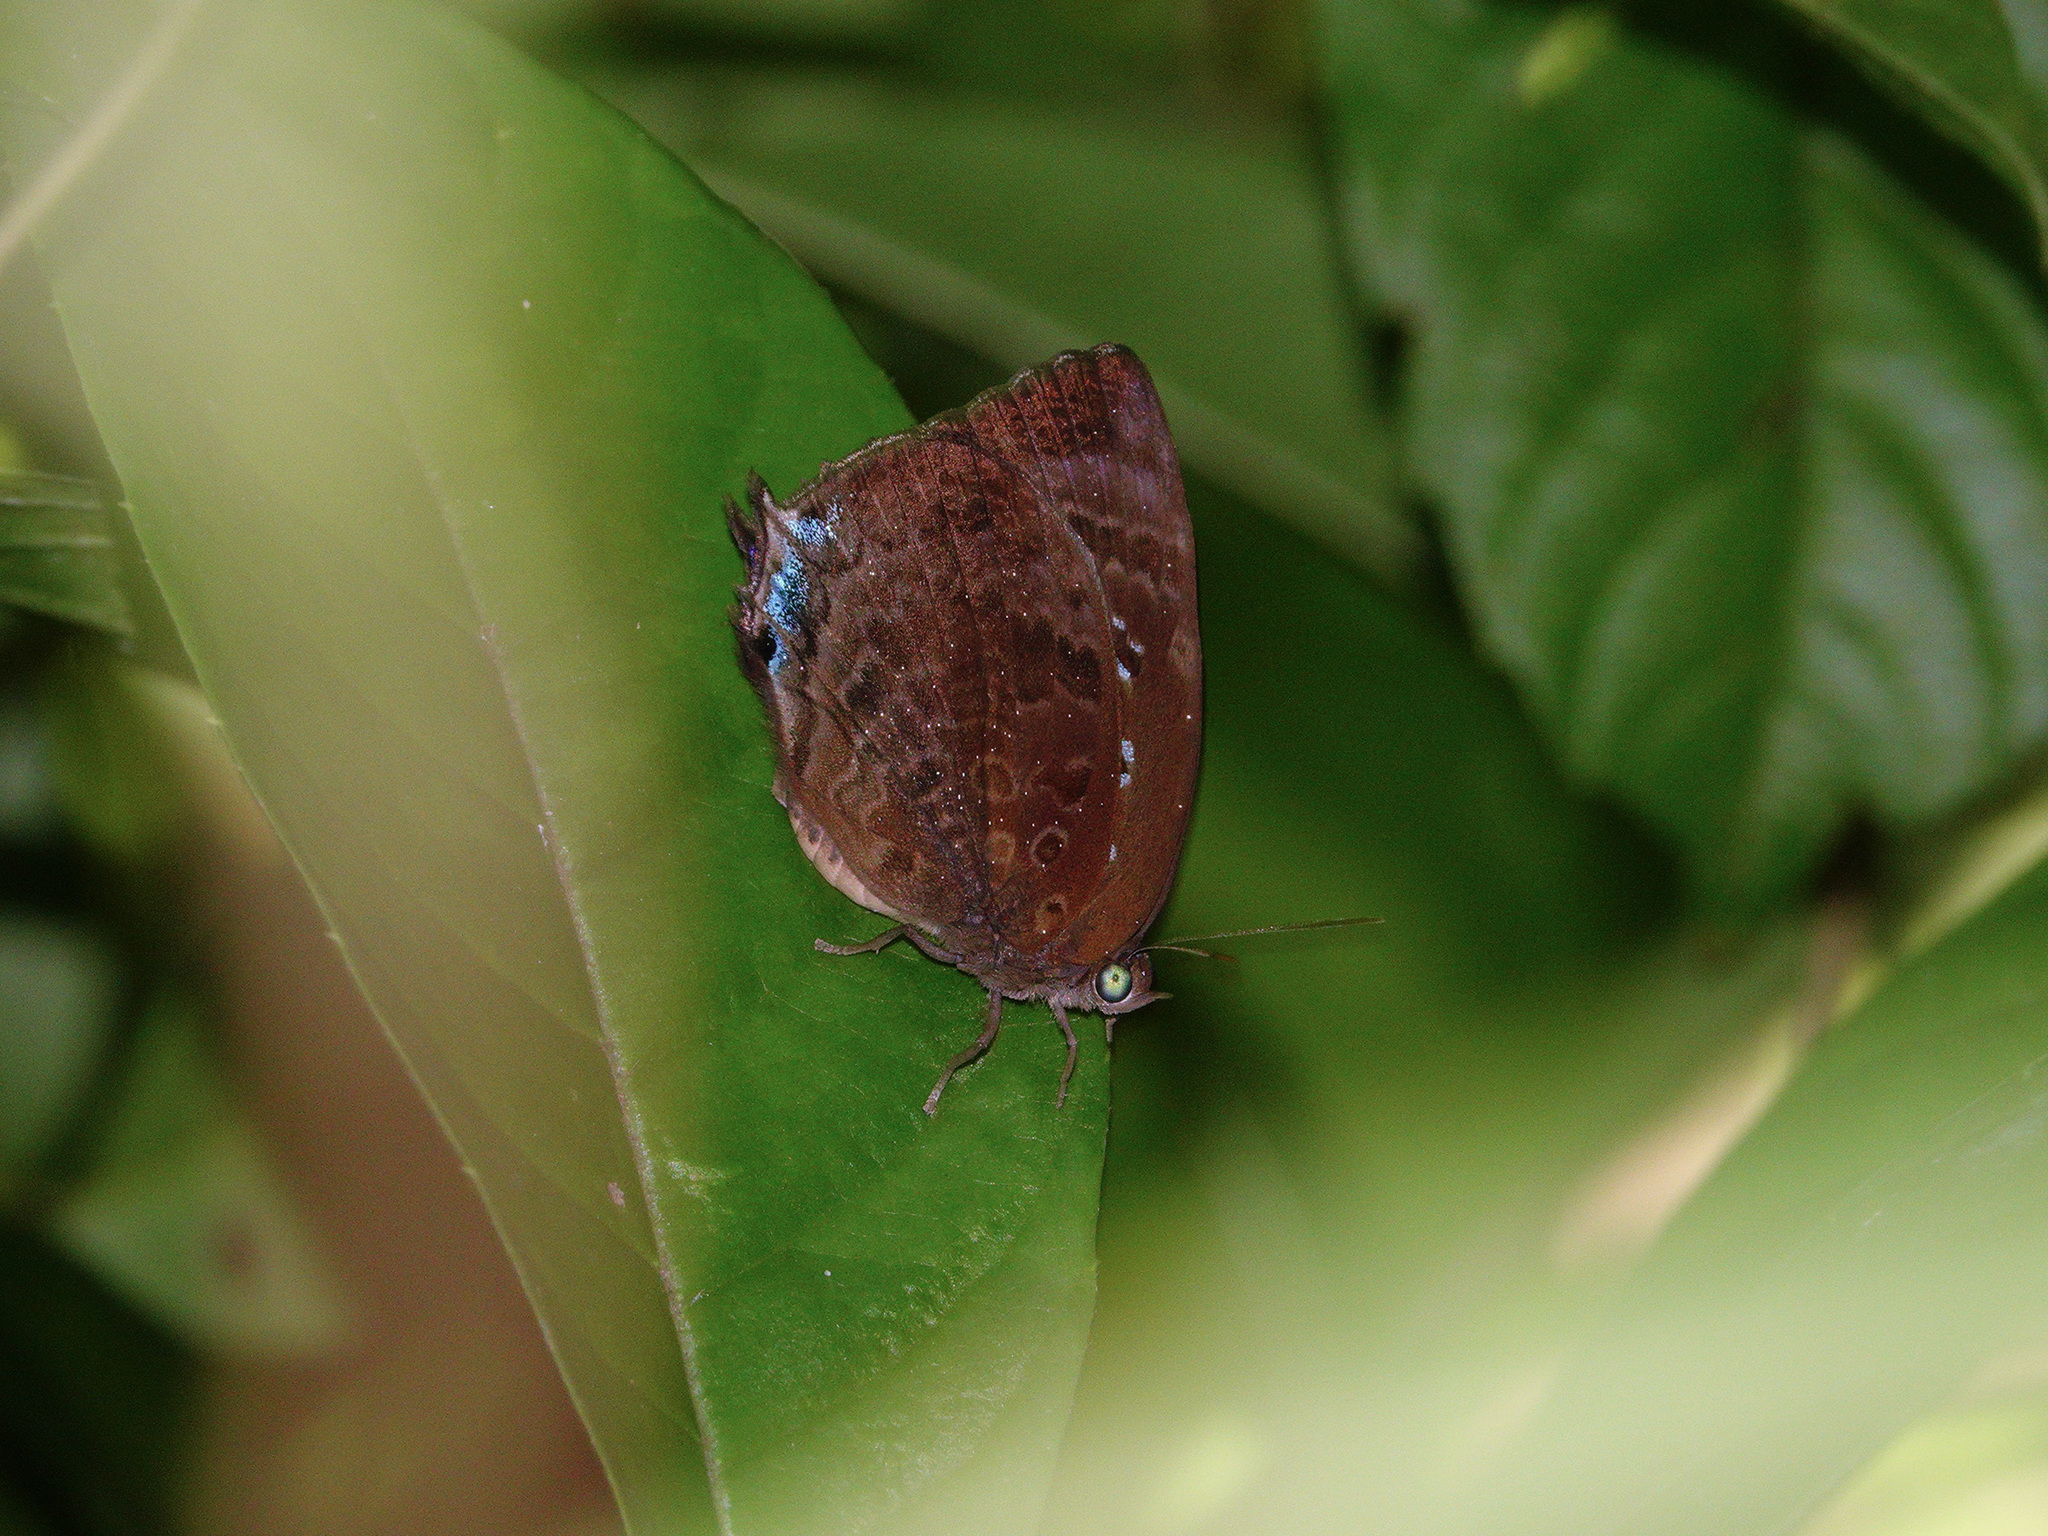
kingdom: Animalia
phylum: Arthropoda
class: Insecta
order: Lepidoptera
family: Lycaenidae
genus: Arhopala
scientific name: Arhopala centaurus
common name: Dull oak-blue
